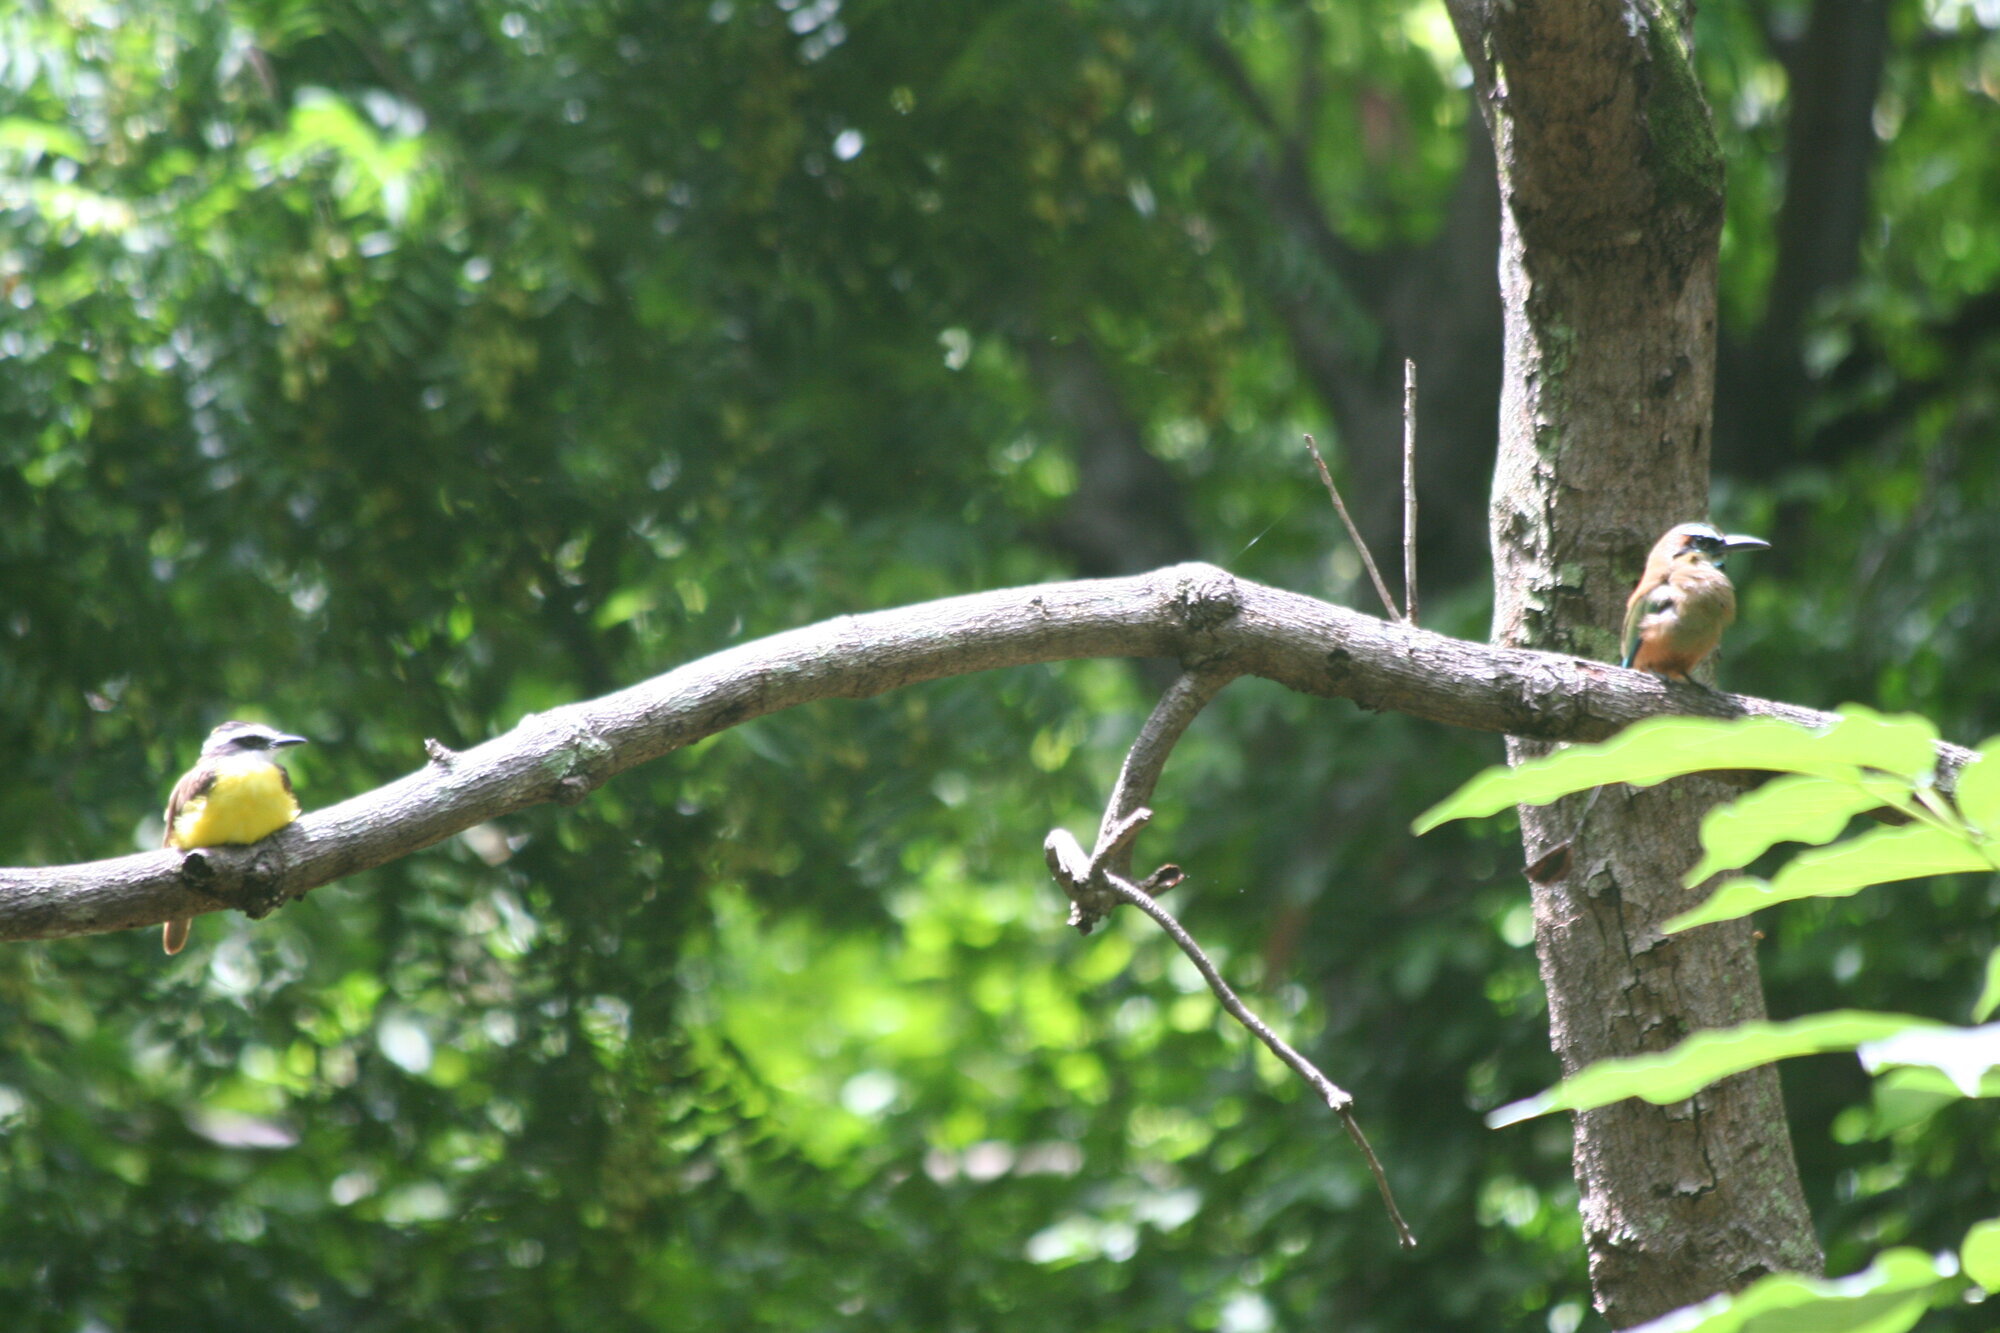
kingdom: Animalia
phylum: Chordata
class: Aves
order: Coraciiformes
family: Momotidae
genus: Eumomota
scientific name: Eumomota superciliosa
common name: Turquoise-browed motmot
